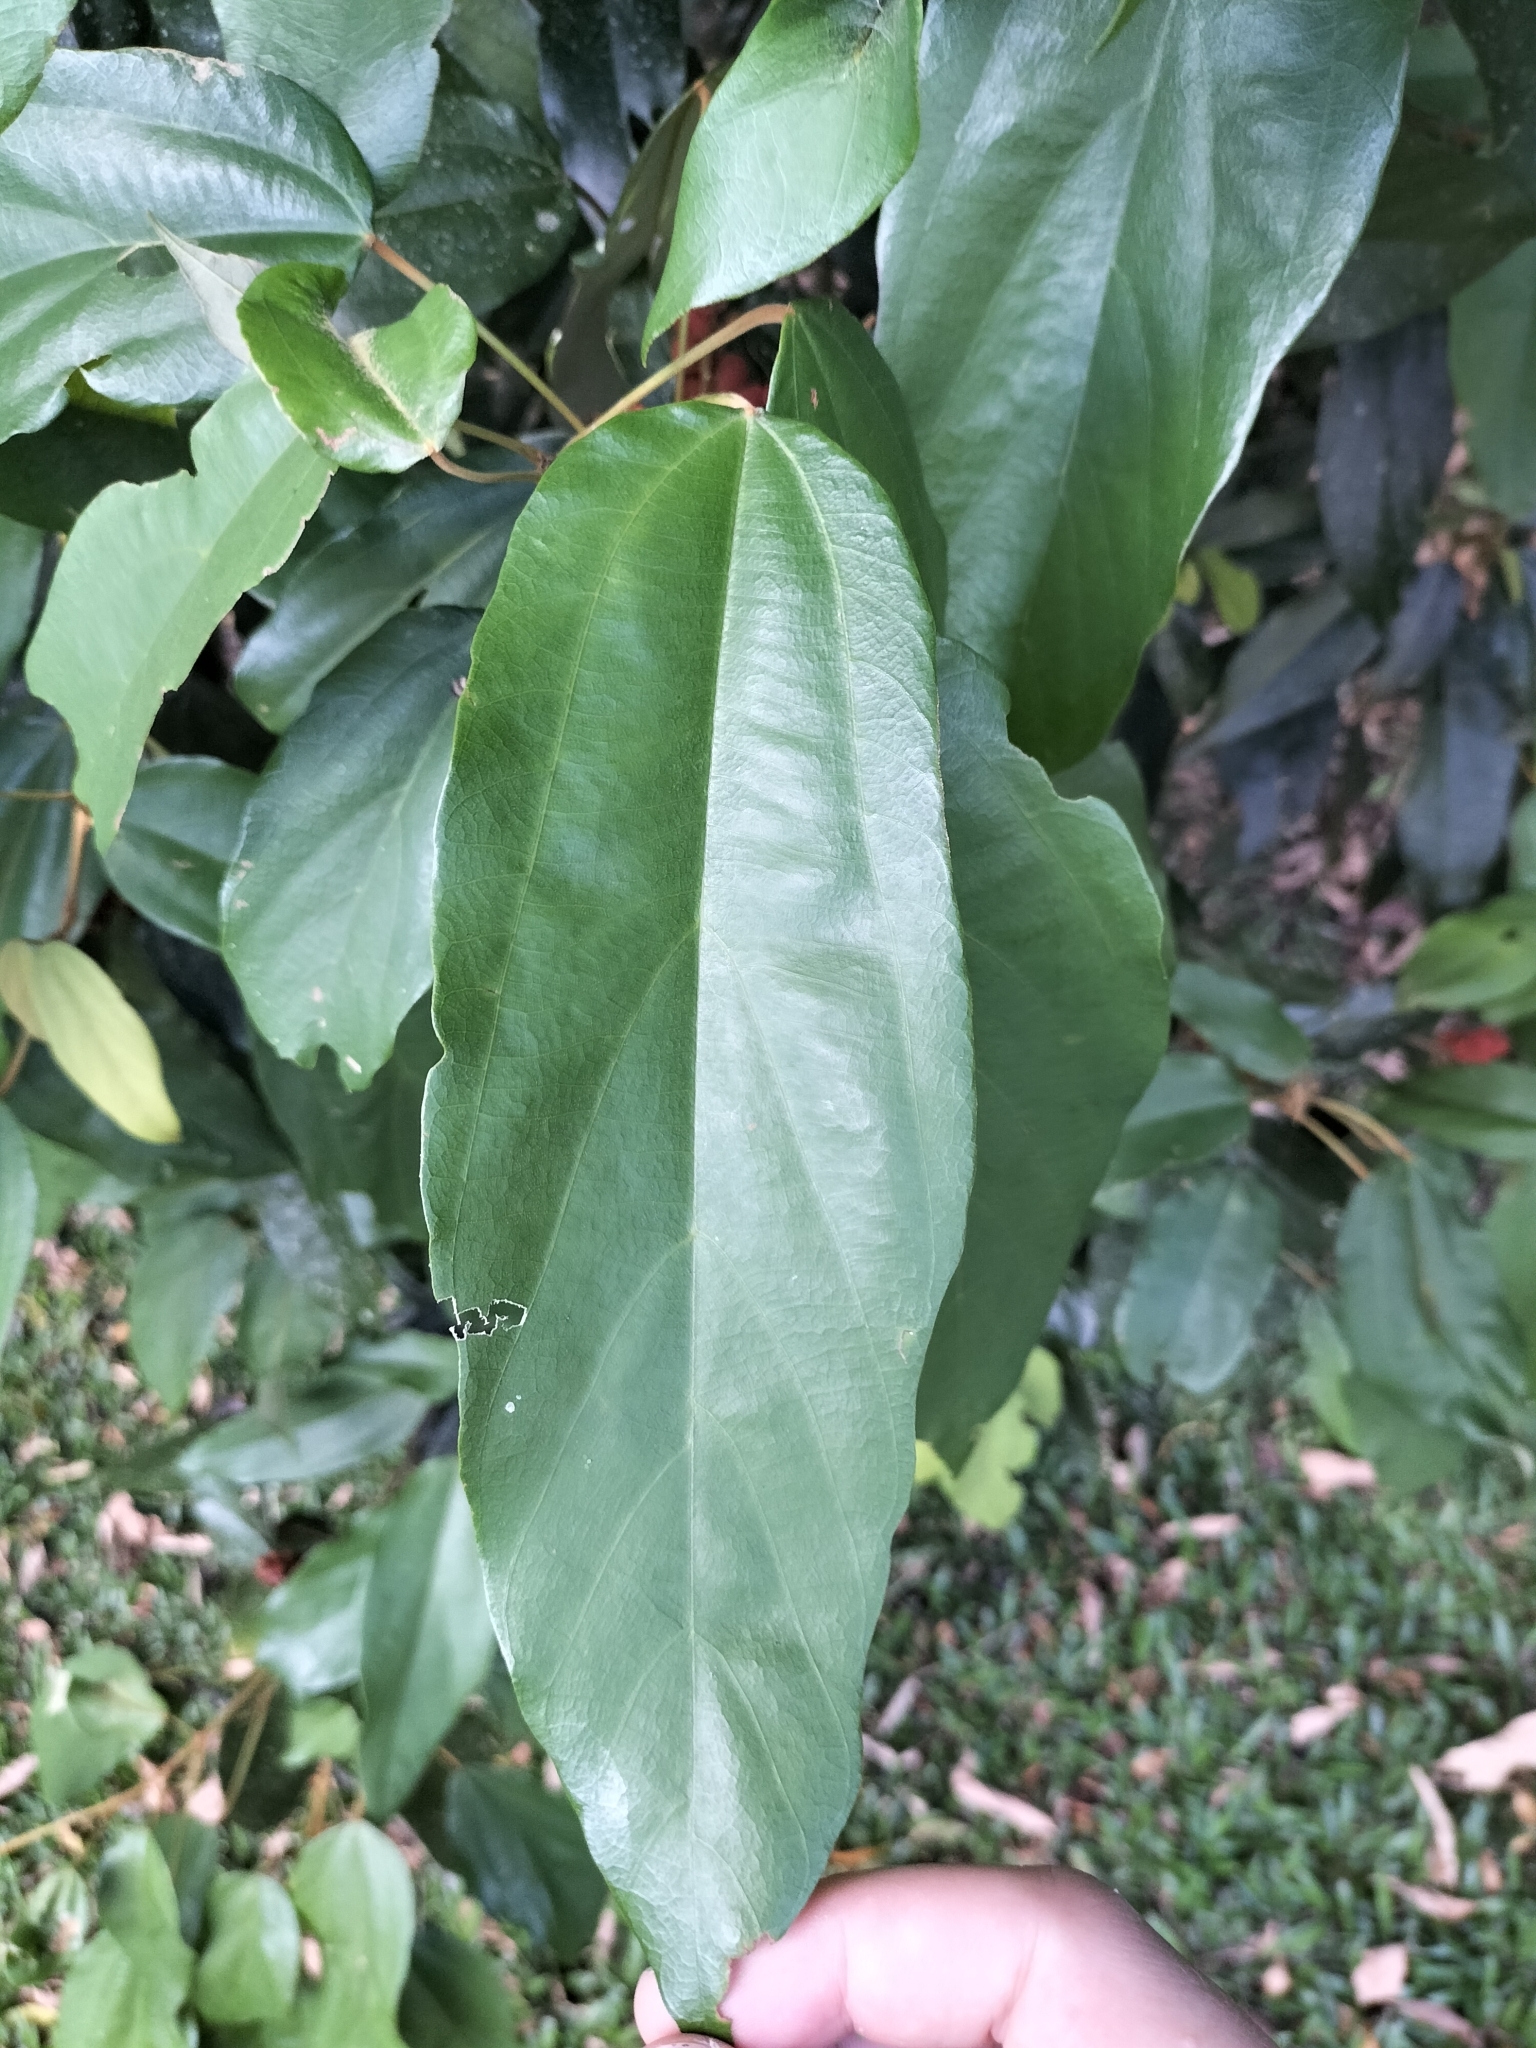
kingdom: Plantae
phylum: Tracheophyta
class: Magnoliopsida
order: Malpighiales
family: Euphorbiaceae
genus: Mallotus
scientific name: Mallotus philippensis
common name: Kamala tree
